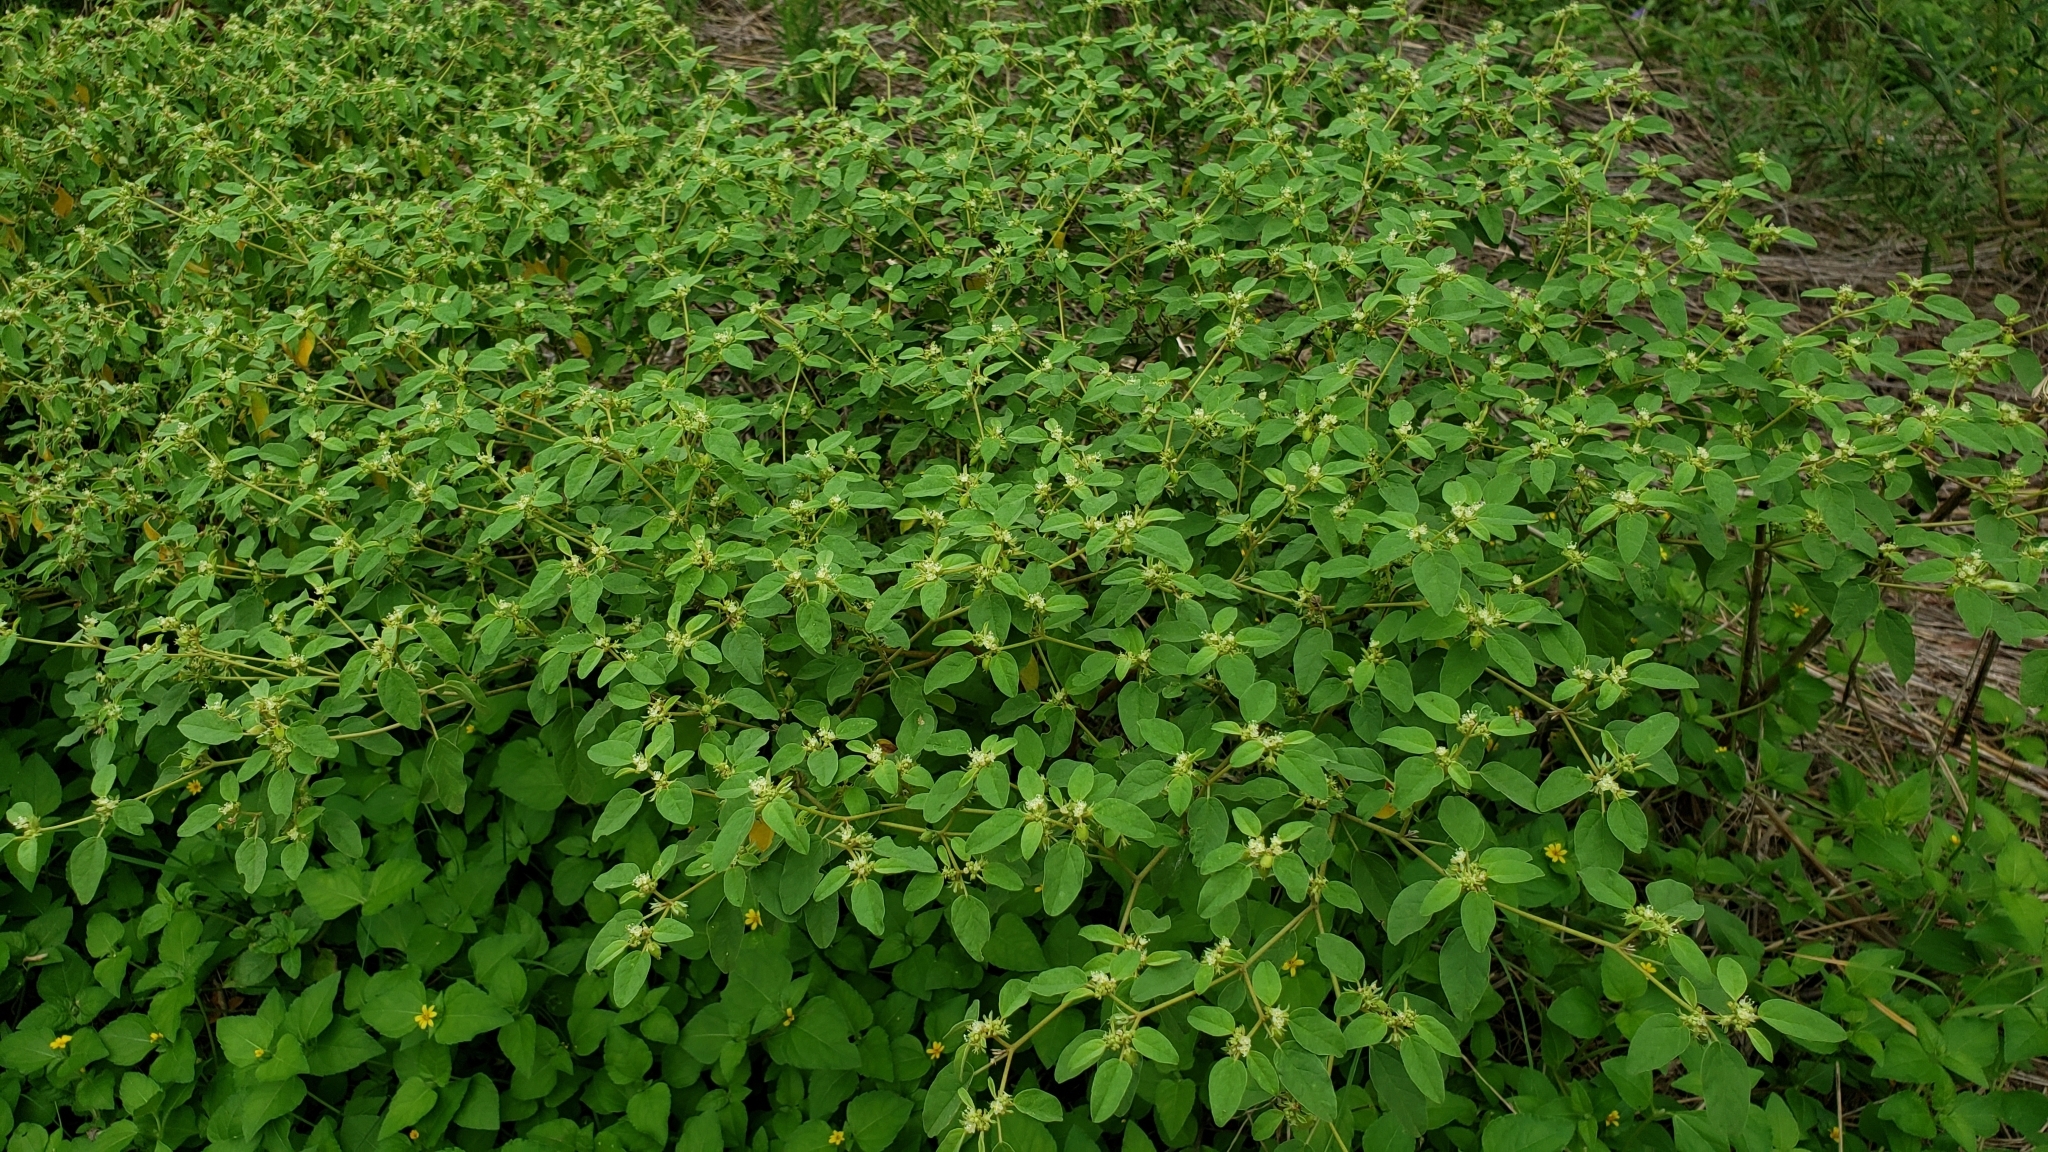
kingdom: Plantae
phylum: Tracheophyta
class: Magnoliopsida
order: Malpighiales
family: Euphorbiaceae
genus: Croton
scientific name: Croton monanthogynus
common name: One-seed croton
